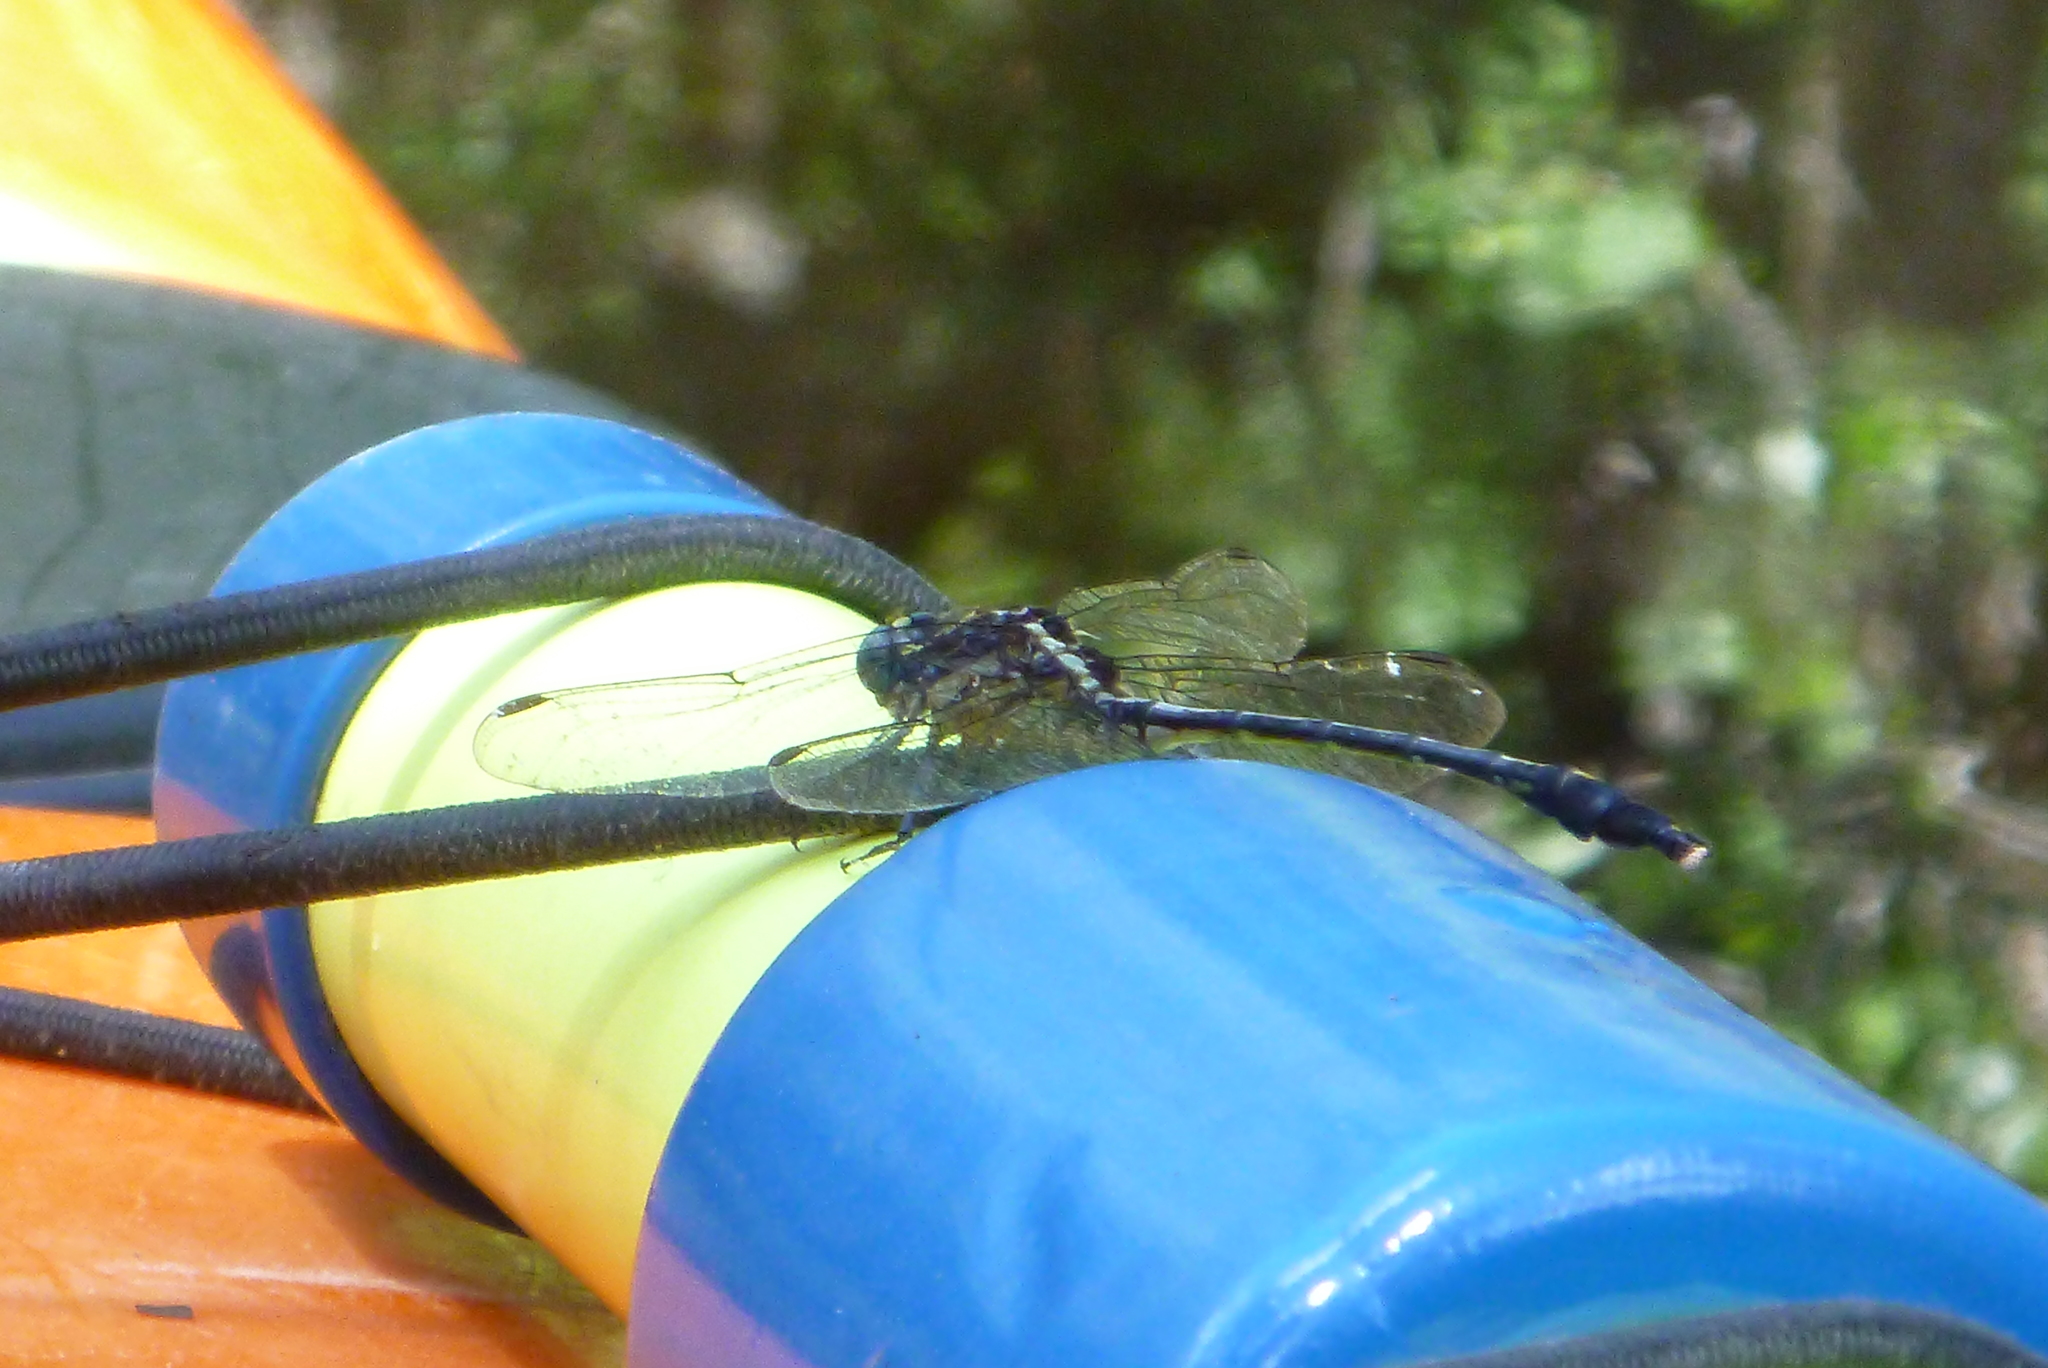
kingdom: Animalia
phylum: Arthropoda
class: Insecta
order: Odonata
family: Gomphidae
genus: Dromogomphus
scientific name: Dromogomphus spinosus
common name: Black-shouldered spinyleg
